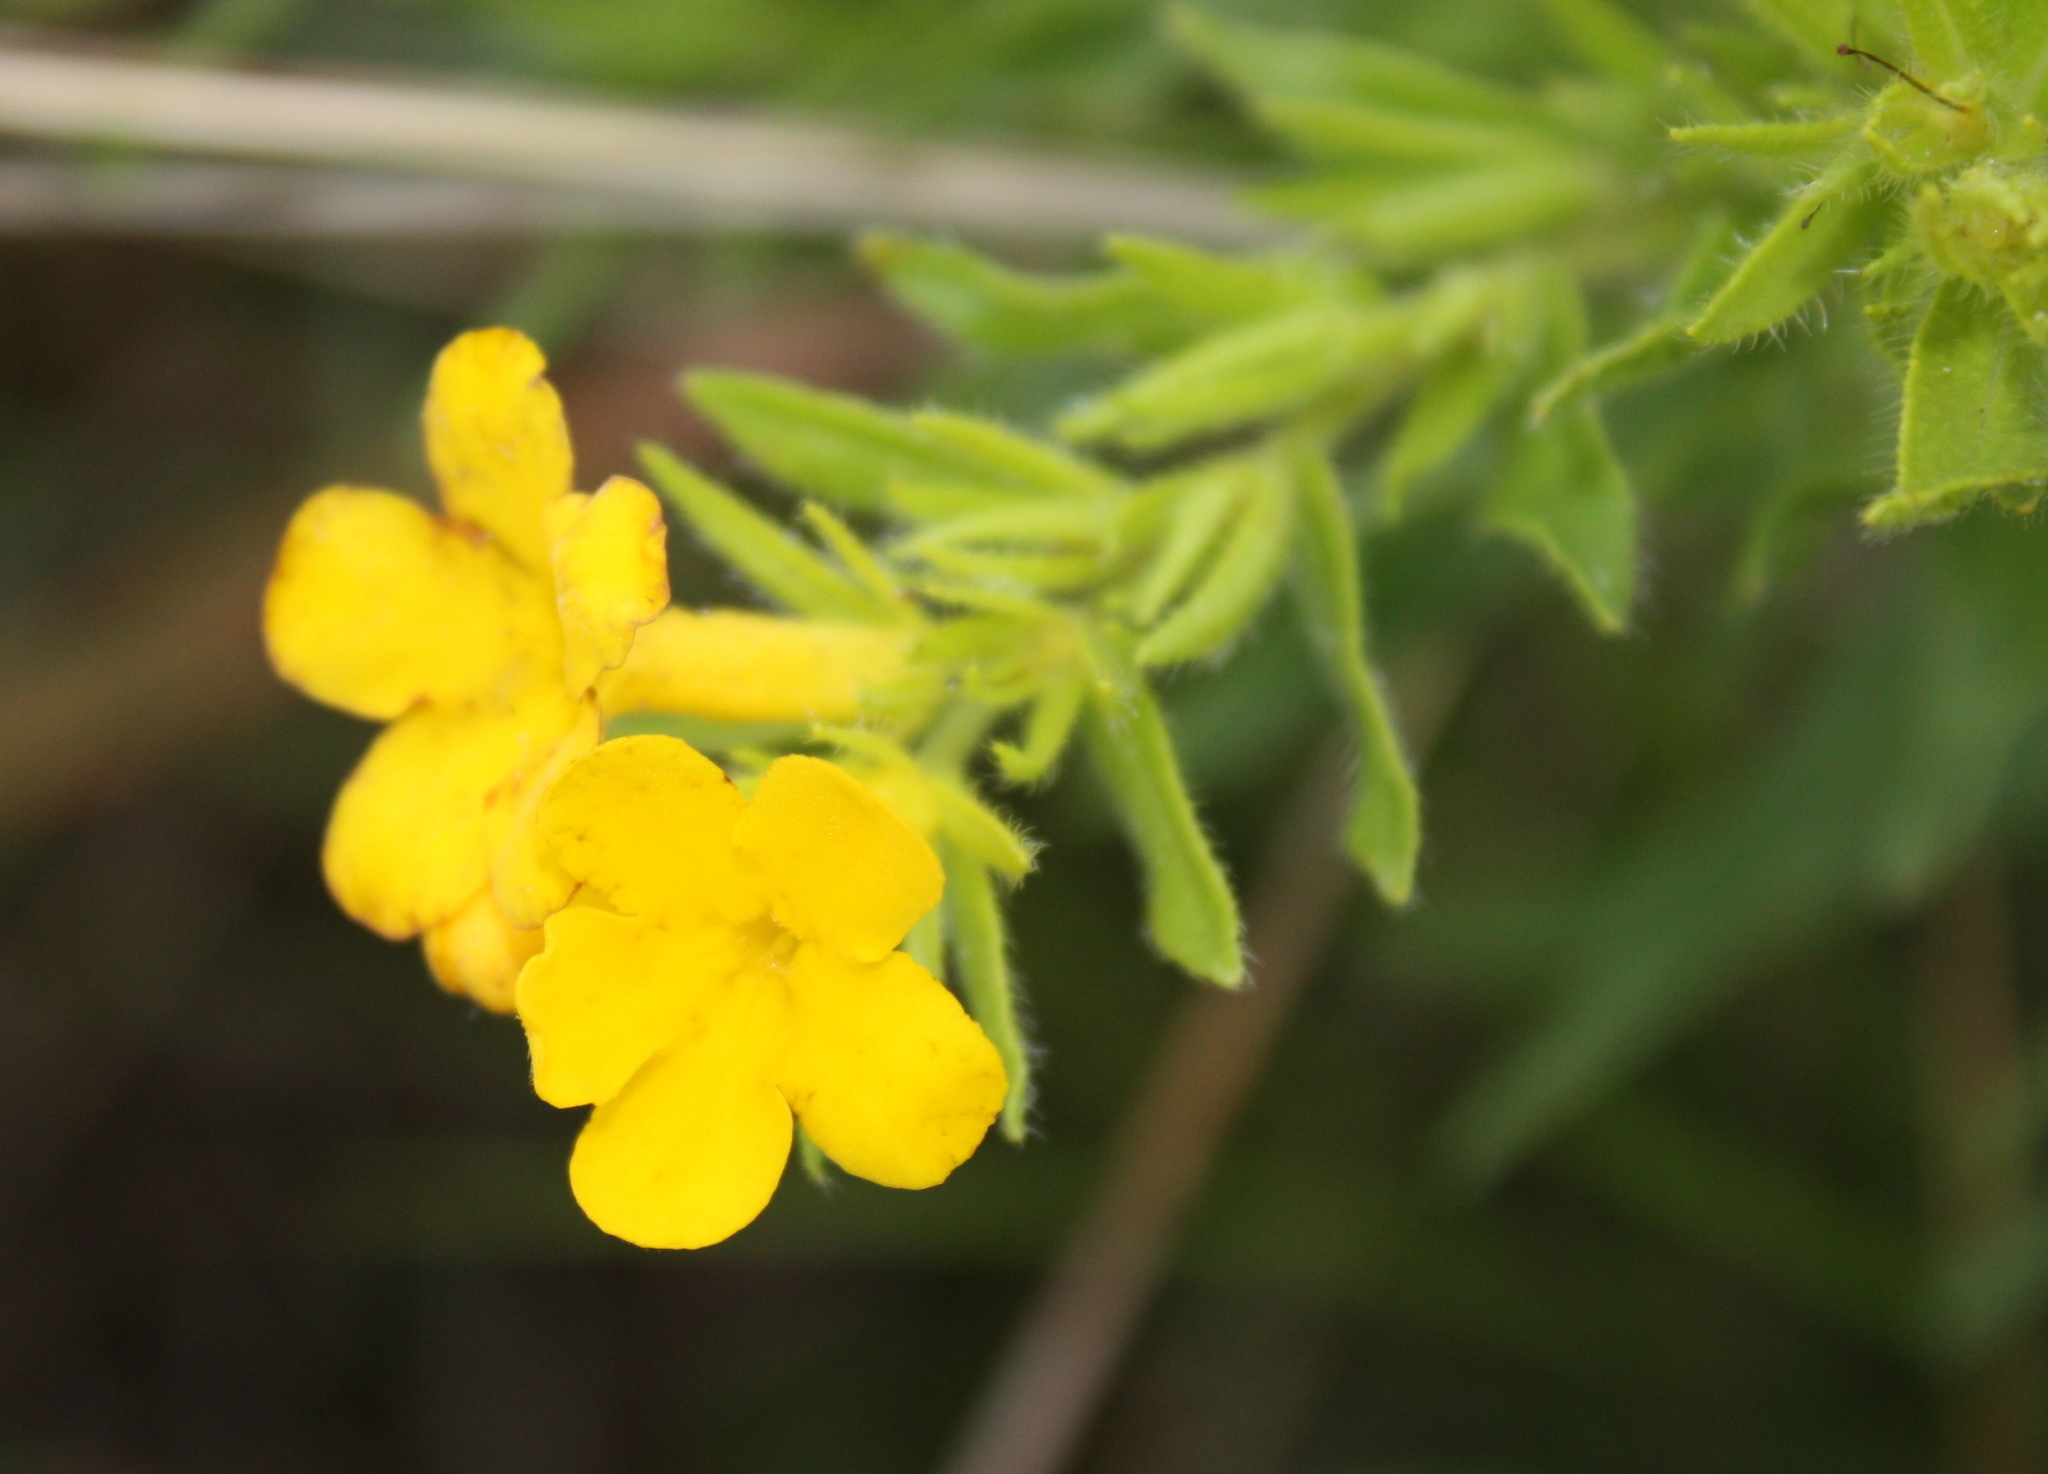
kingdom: Plantae
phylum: Tracheophyta
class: Magnoliopsida
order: Boraginales
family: Boraginaceae
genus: Lithospermum
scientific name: Lithospermum canescens
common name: Hoary puccoon
